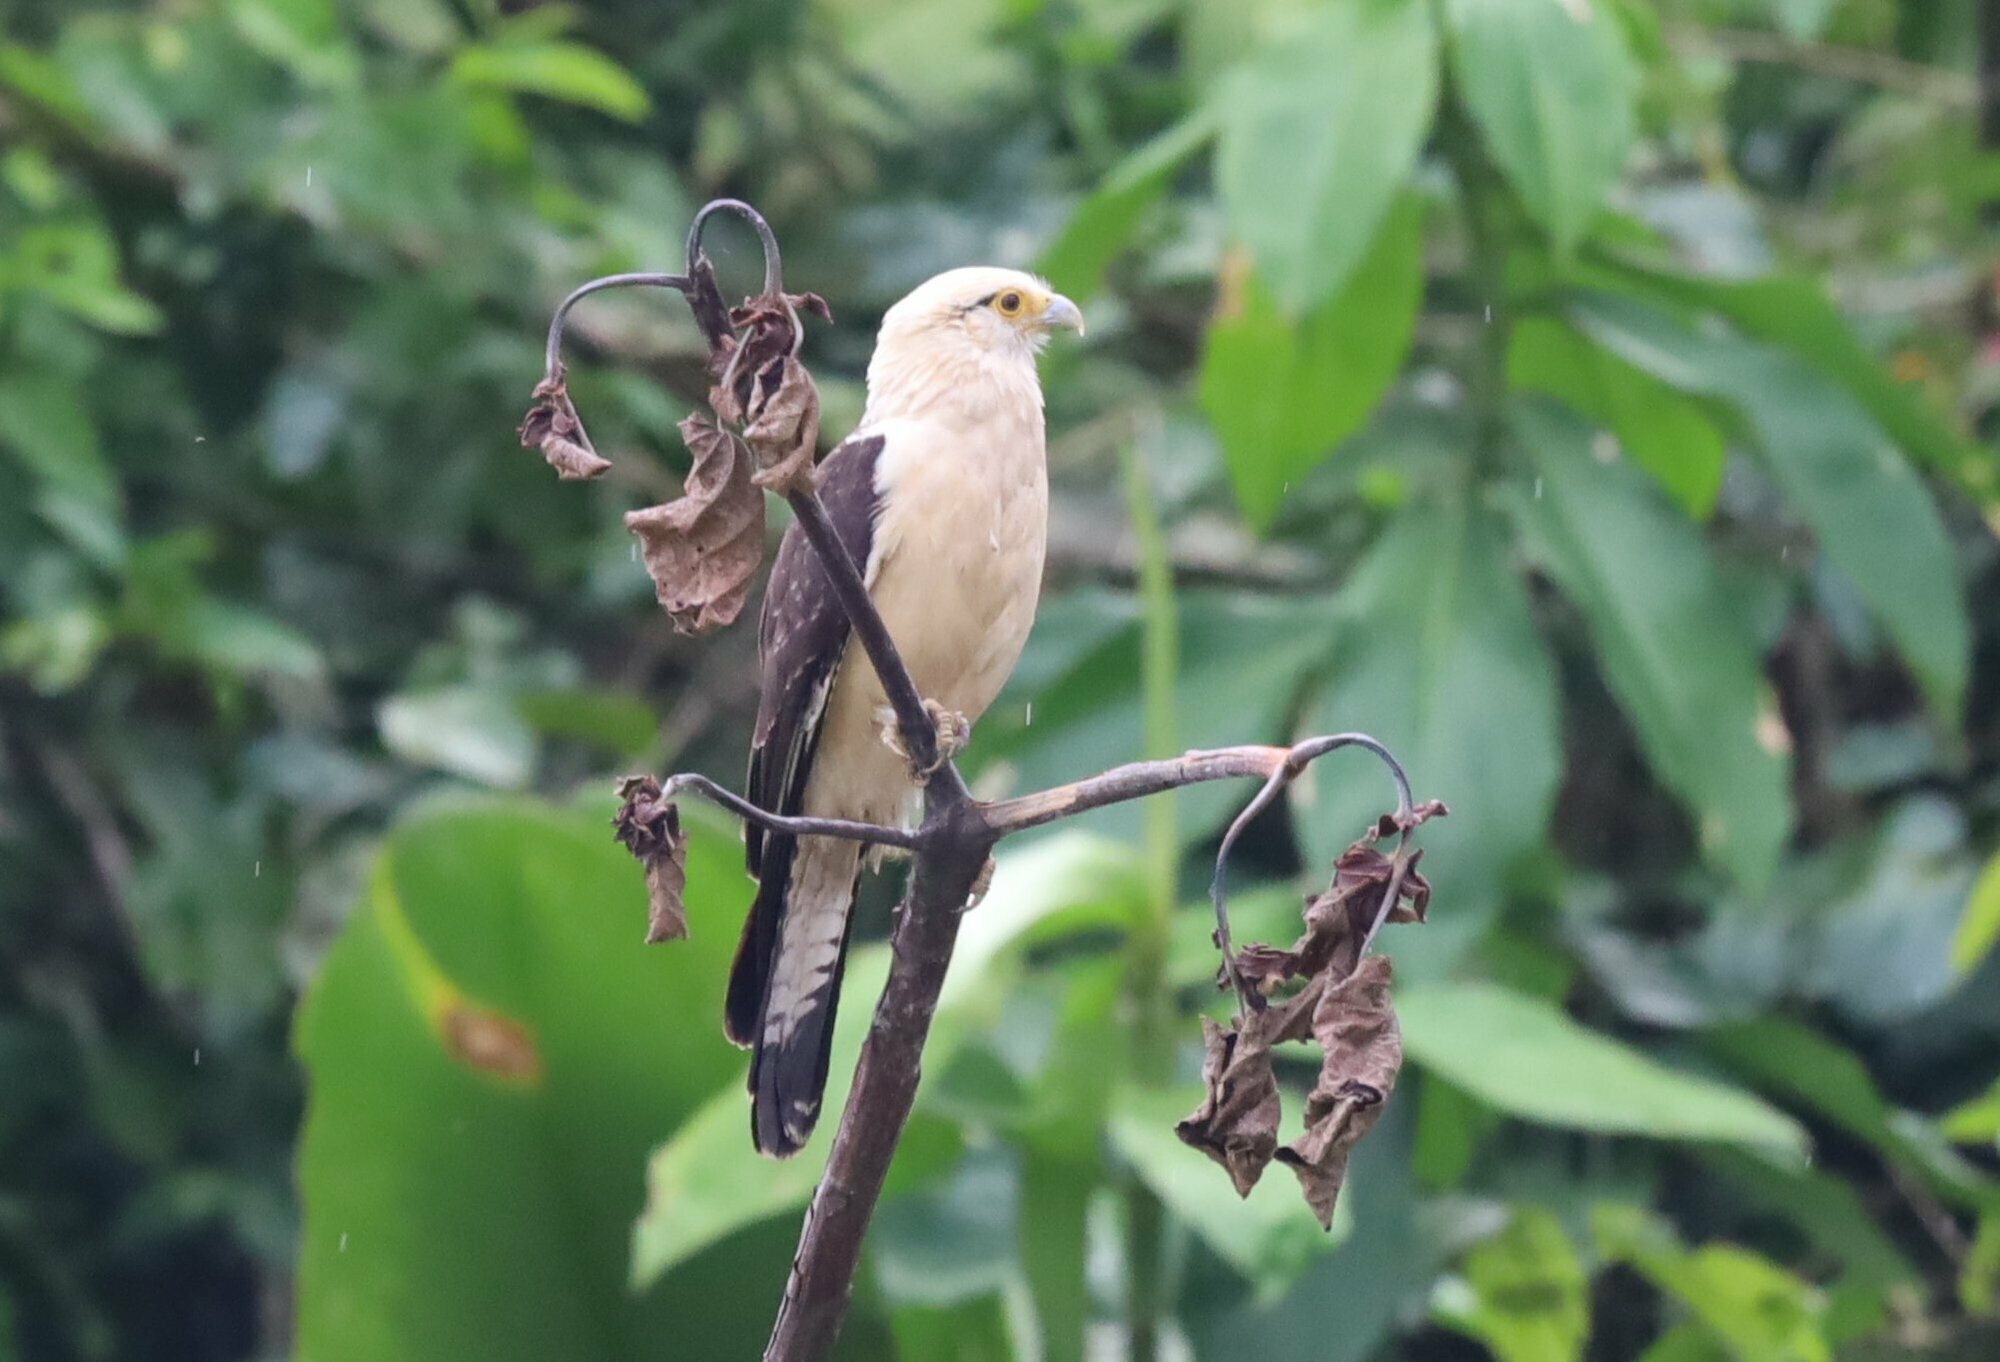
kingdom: Animalia
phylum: Chordata
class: Aves
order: Falconiformes
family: Falconidae
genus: Daptrius
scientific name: Daptrius
